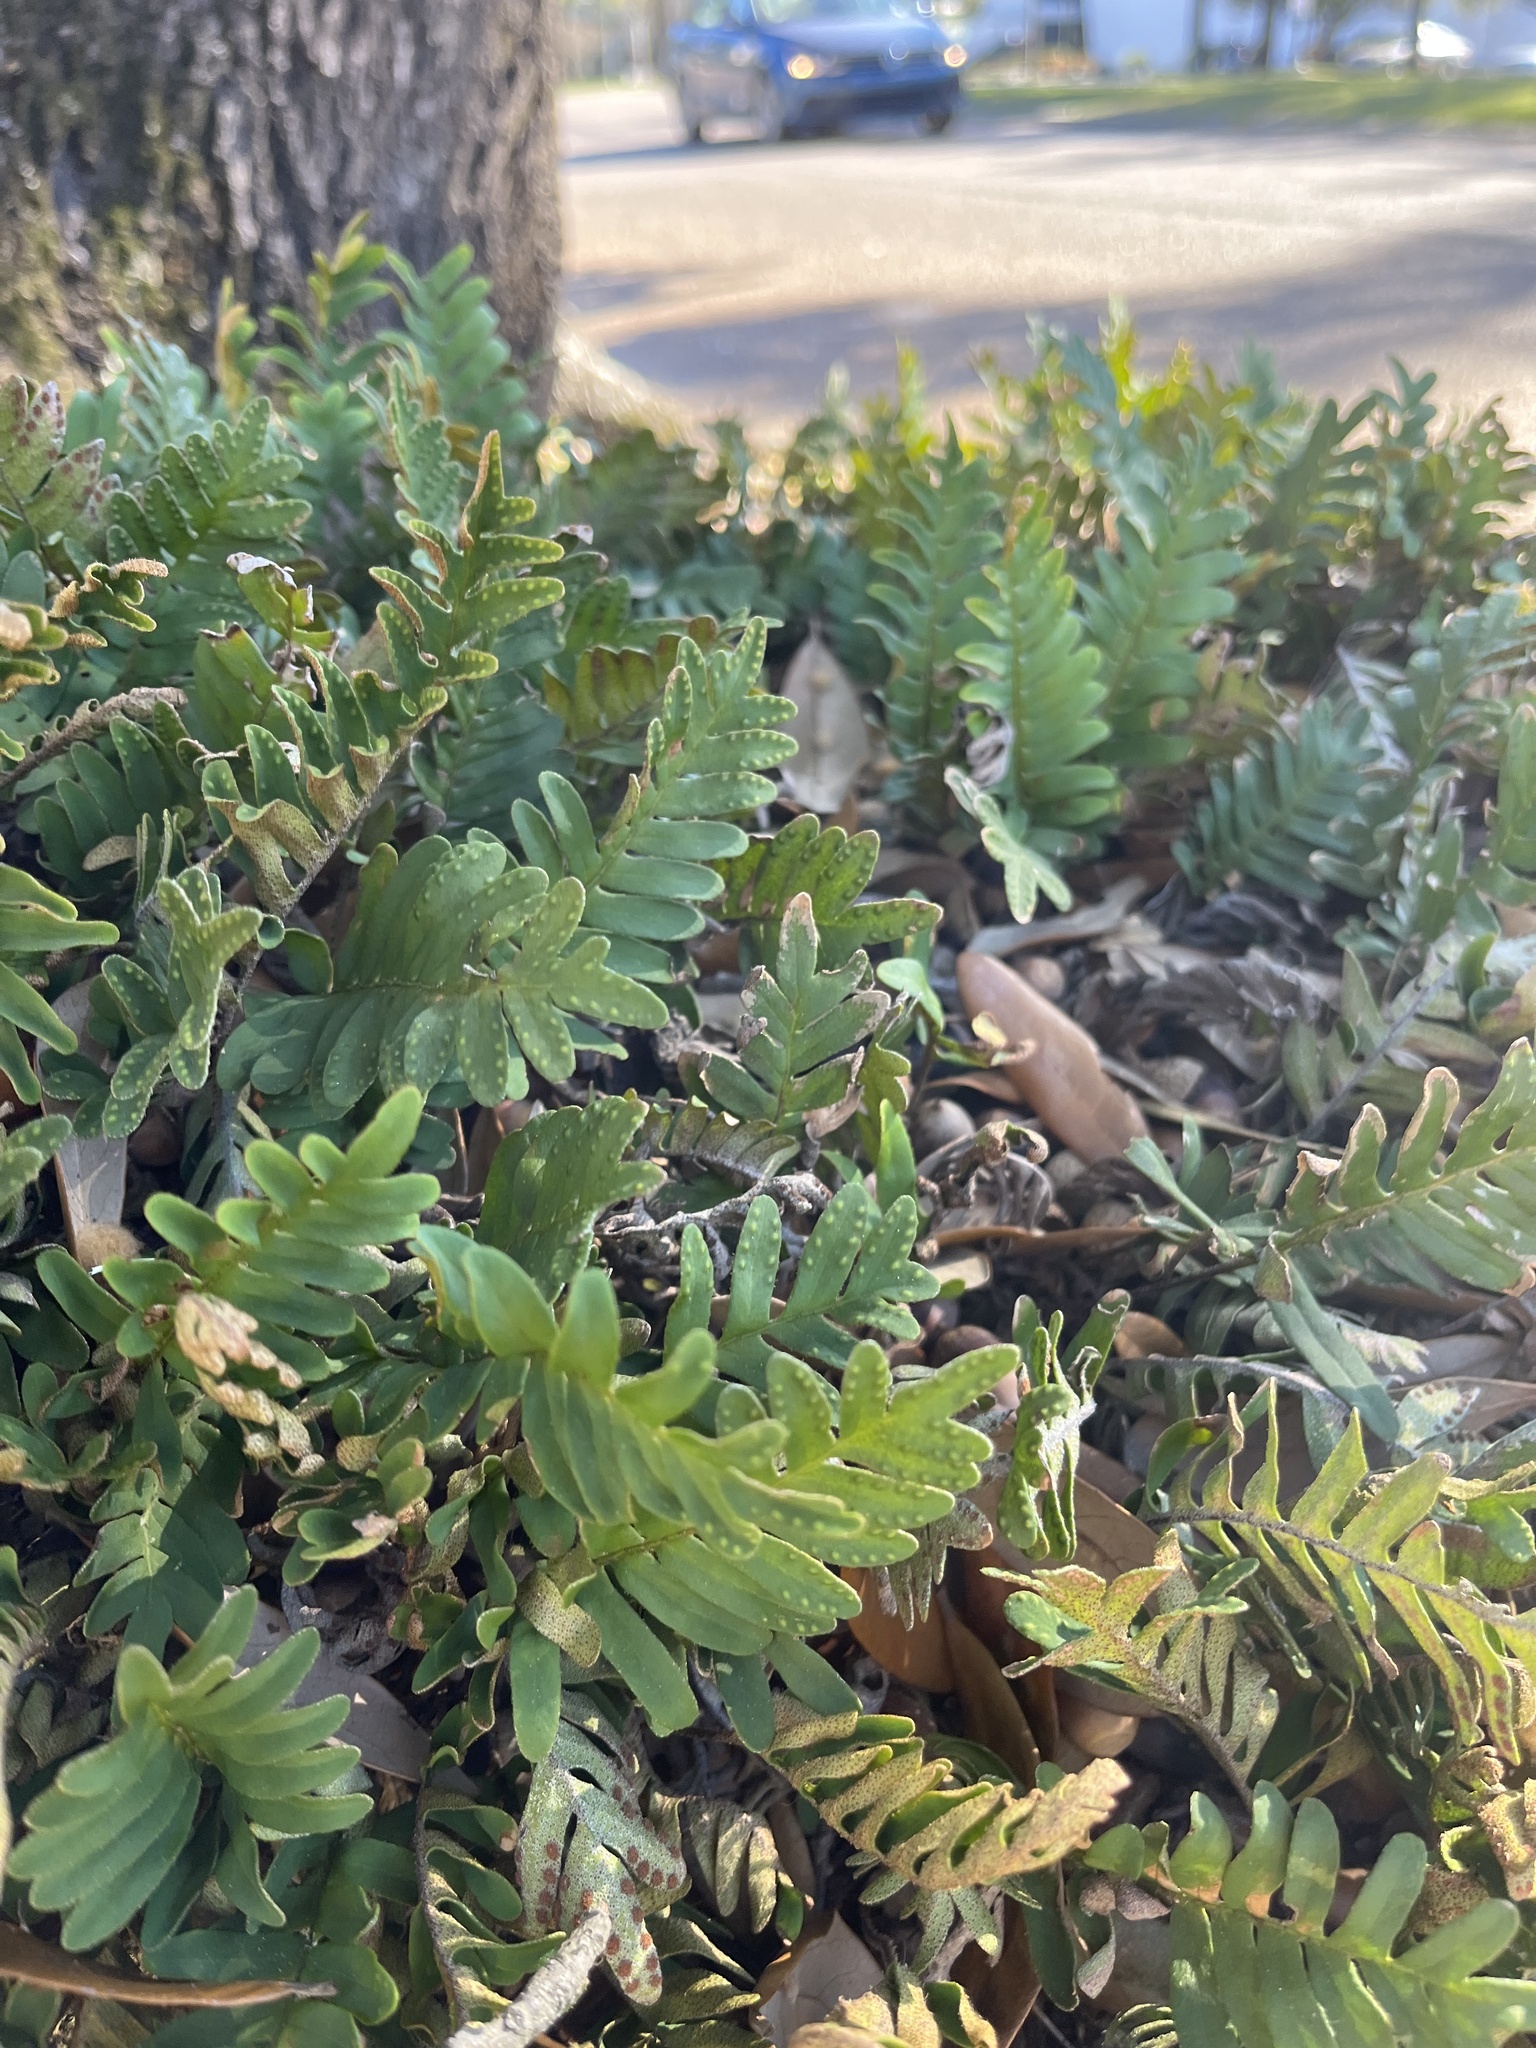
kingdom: Plantae
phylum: Tracheophyta
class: Polypodiopsida
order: Polypodiales
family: Polypodiaceae
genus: Pleopeltis
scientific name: Pleopeltis michauxiana
